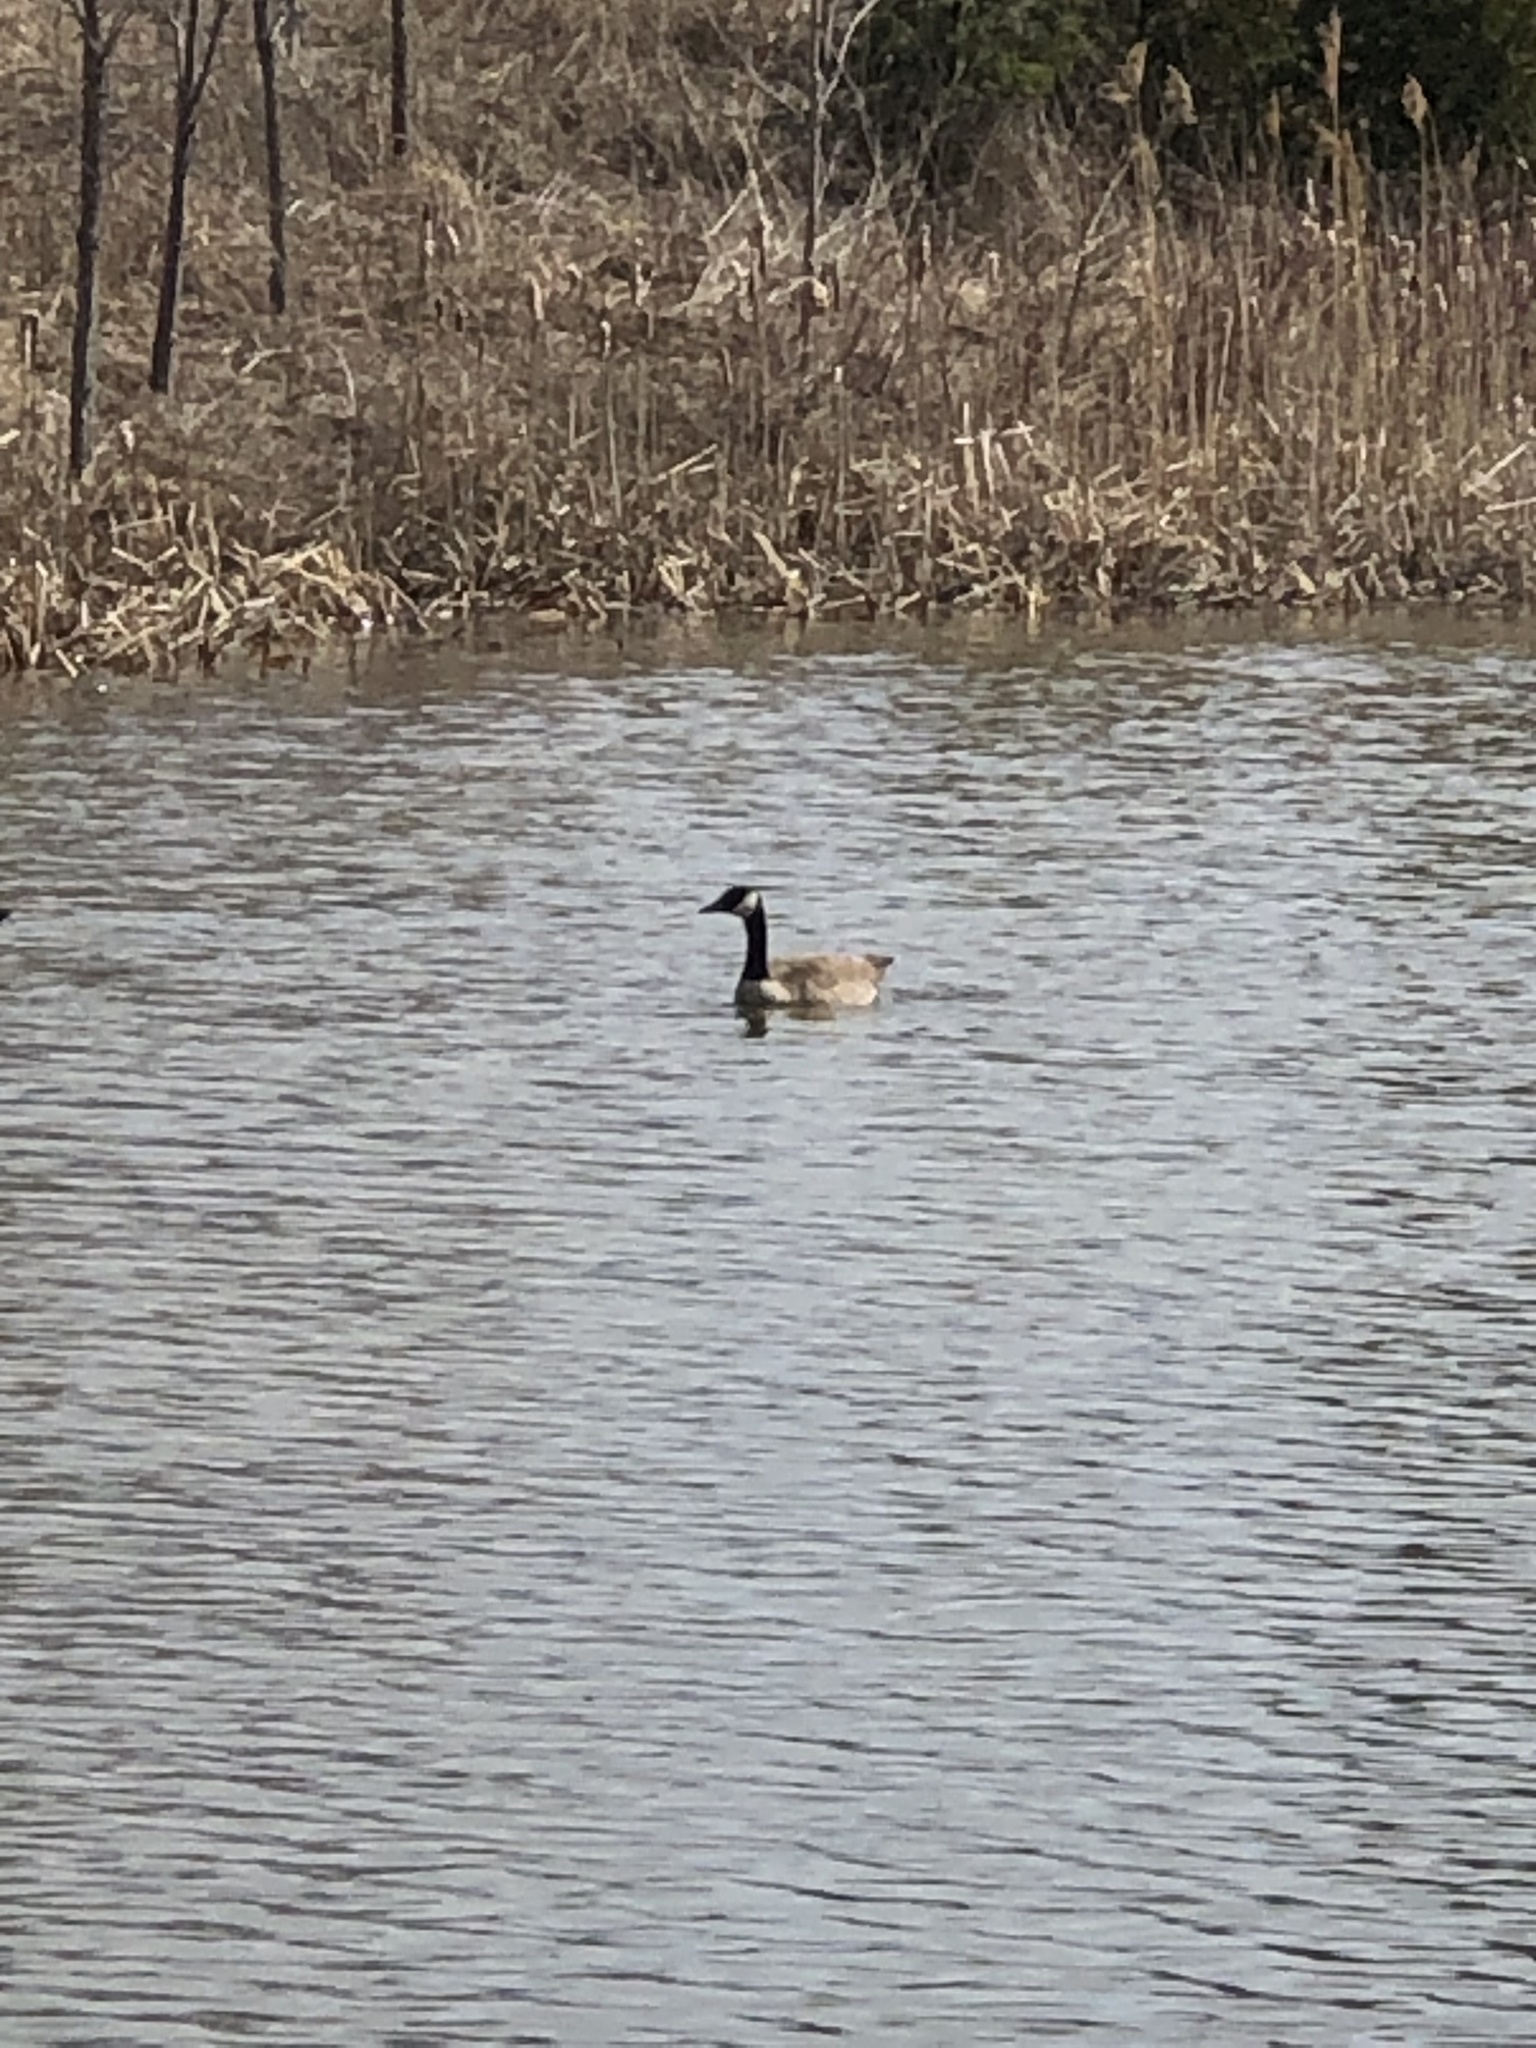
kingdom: Animalia
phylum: Chordata
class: Aves
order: Anseriformes
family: Anatidae
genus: Branta
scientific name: Branta canadensis
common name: Canada goose
